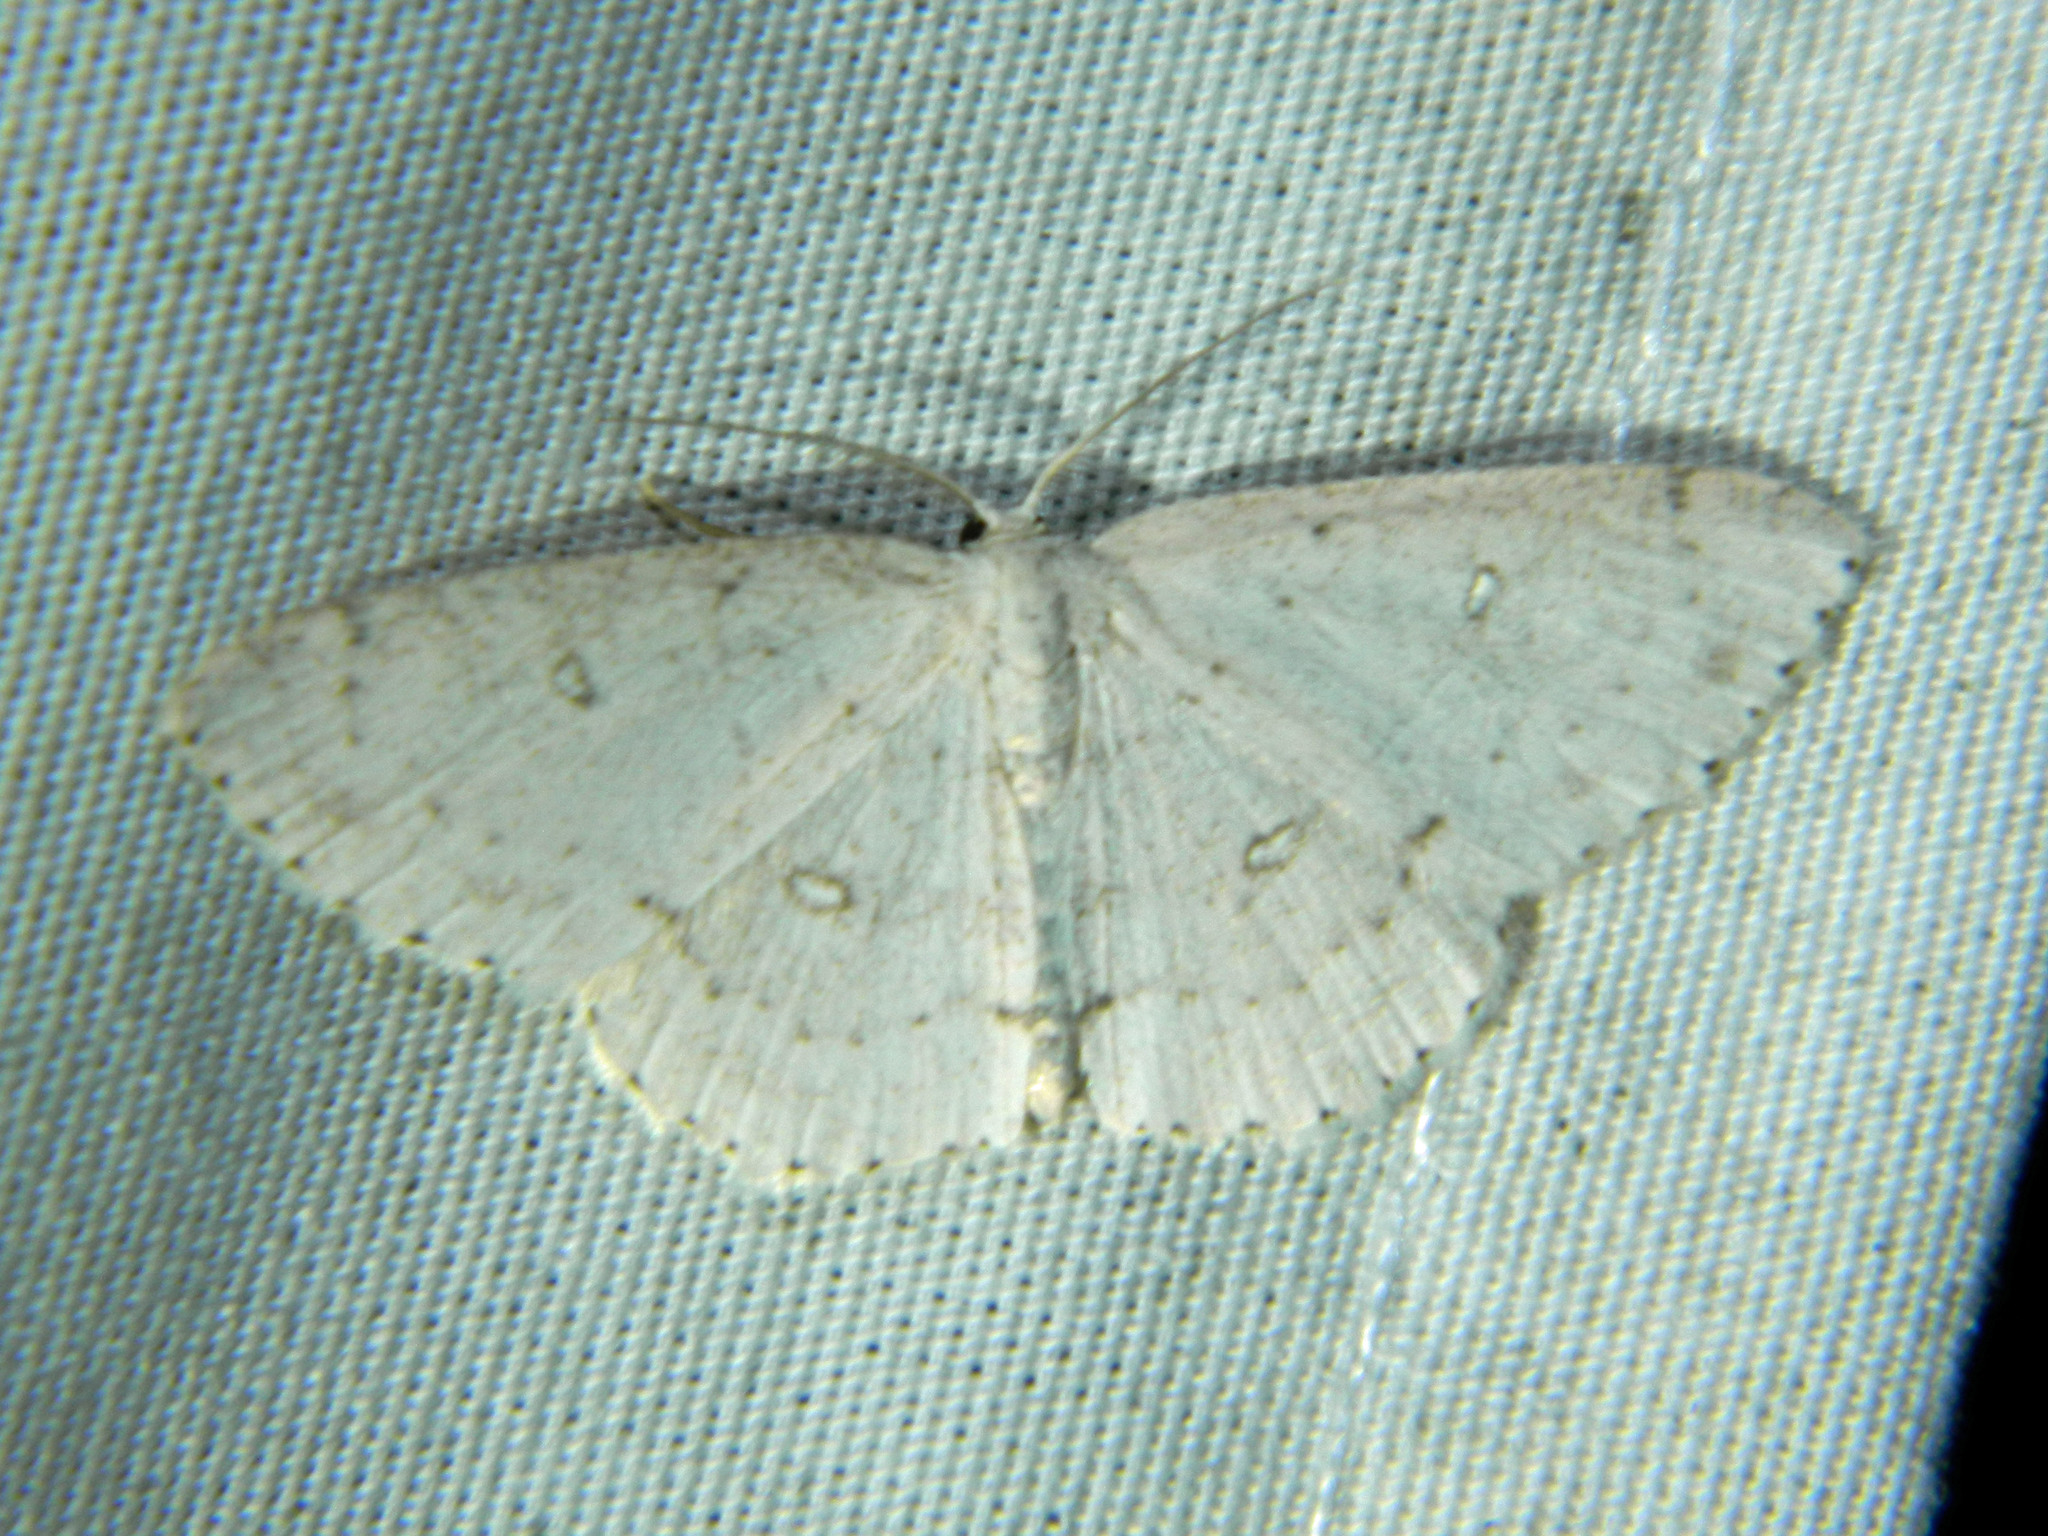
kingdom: Animalia
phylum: Arthropoda
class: Insecta
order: Lepidoptera
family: Geometridae
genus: Cyclophora
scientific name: Cyclophora pendulinaria
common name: Sweet fern geometer
